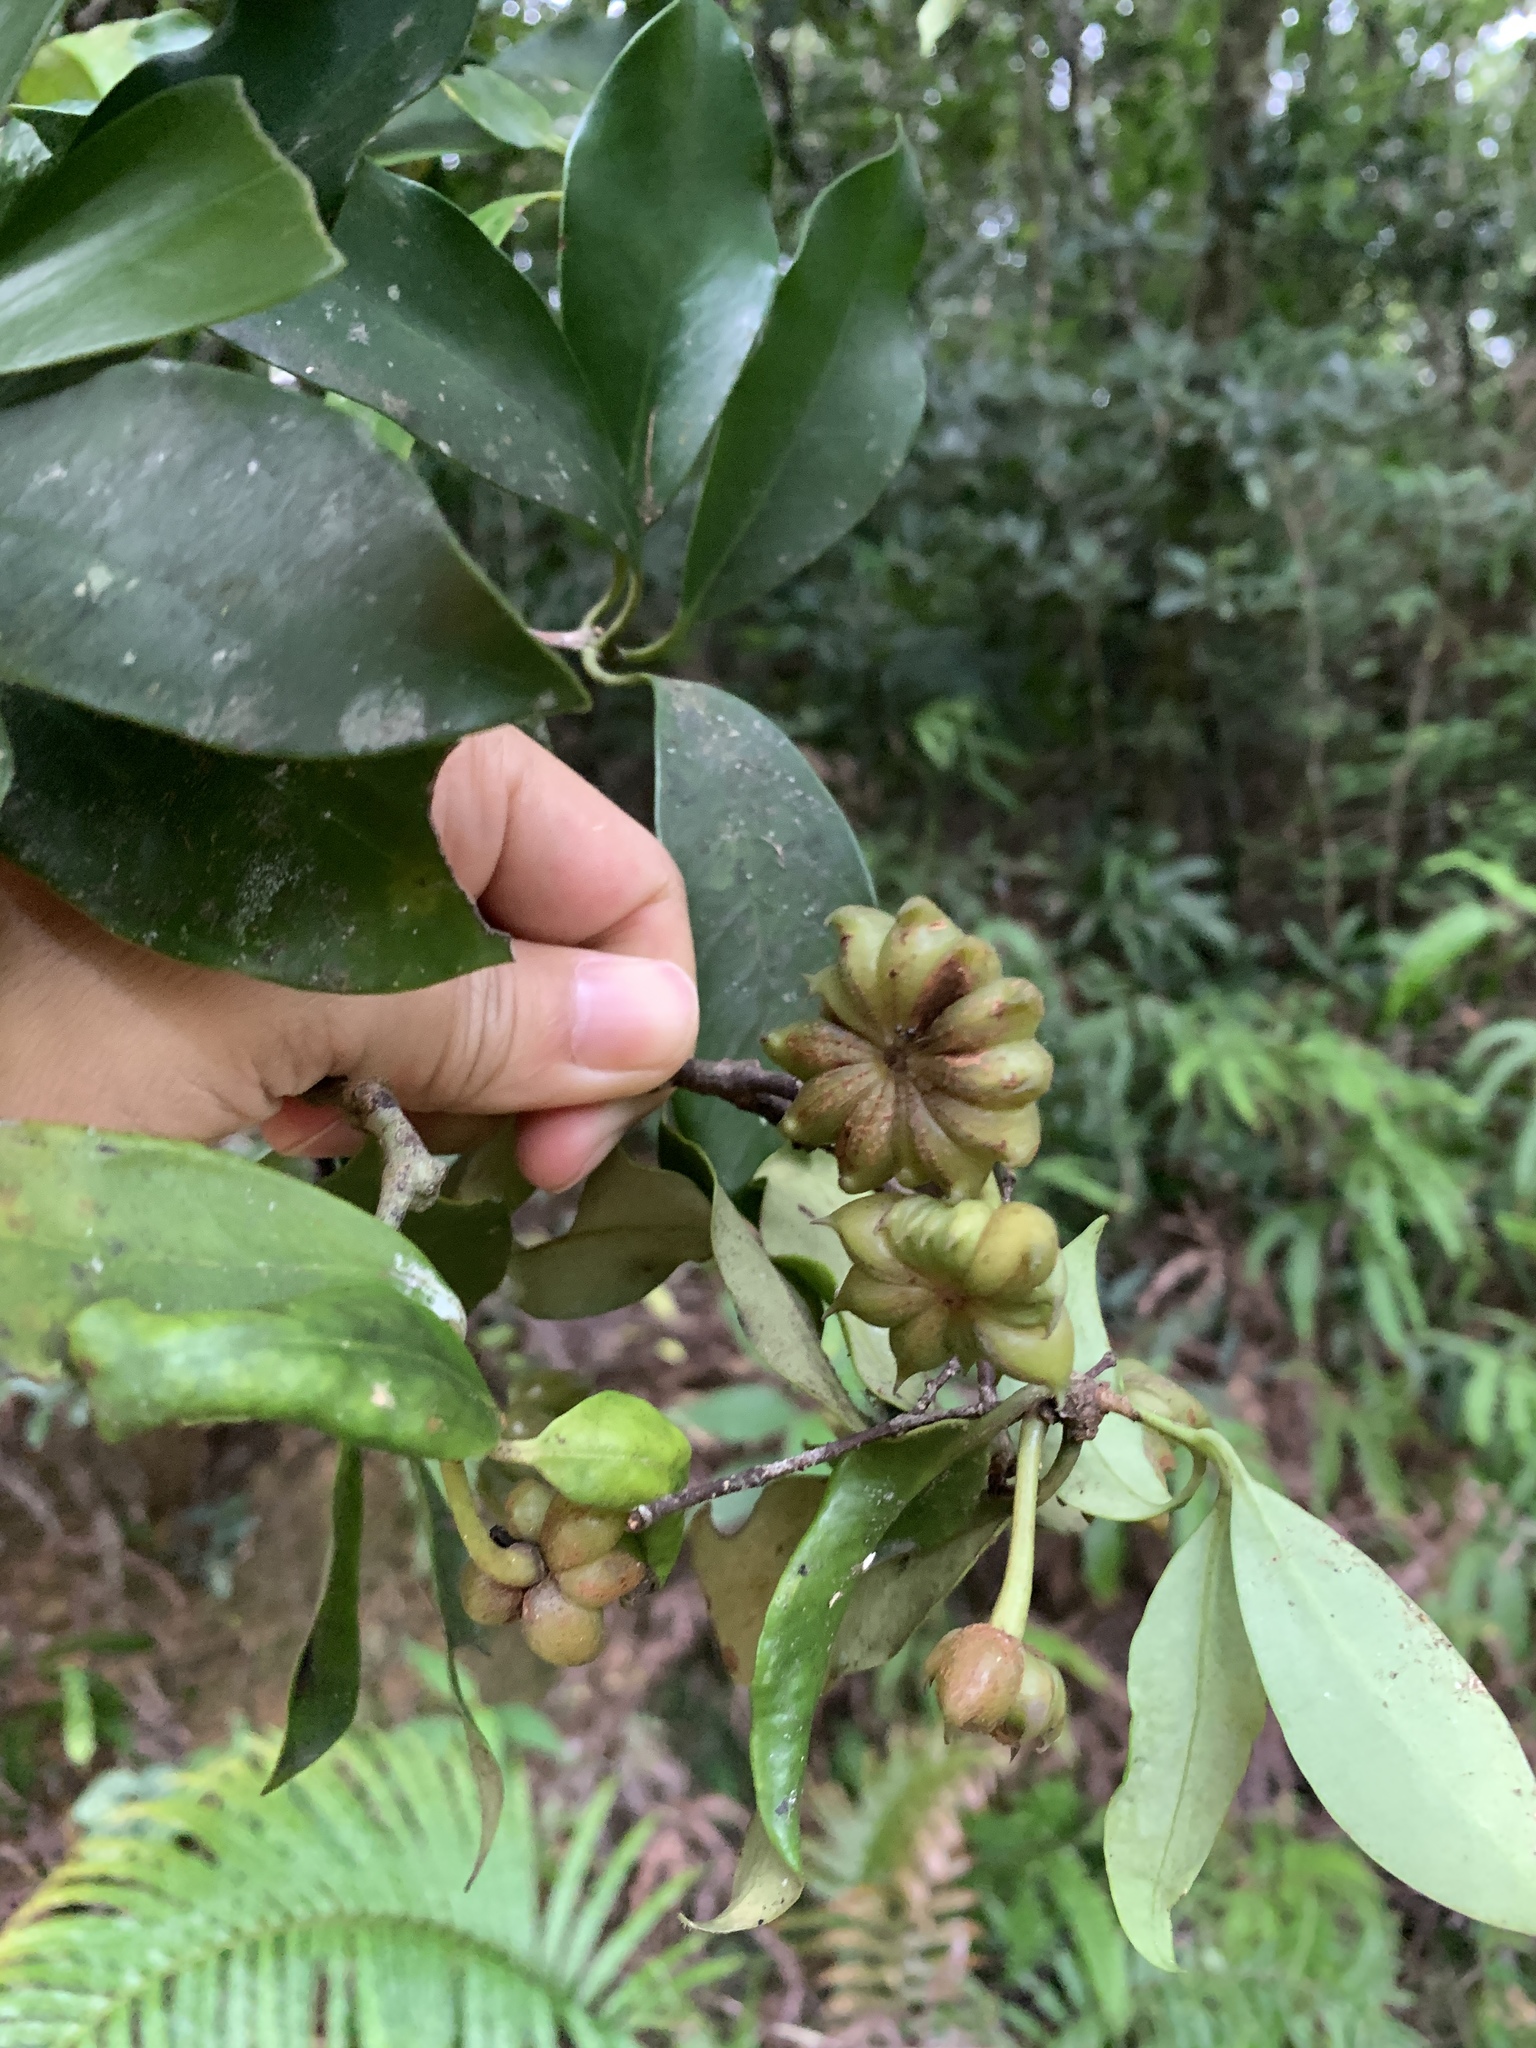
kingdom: Plantae
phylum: Tracheophyta
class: Magnoliopsida
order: Austrobaileyales
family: Schisandraceae
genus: Illicium
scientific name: Illicium arborescens
